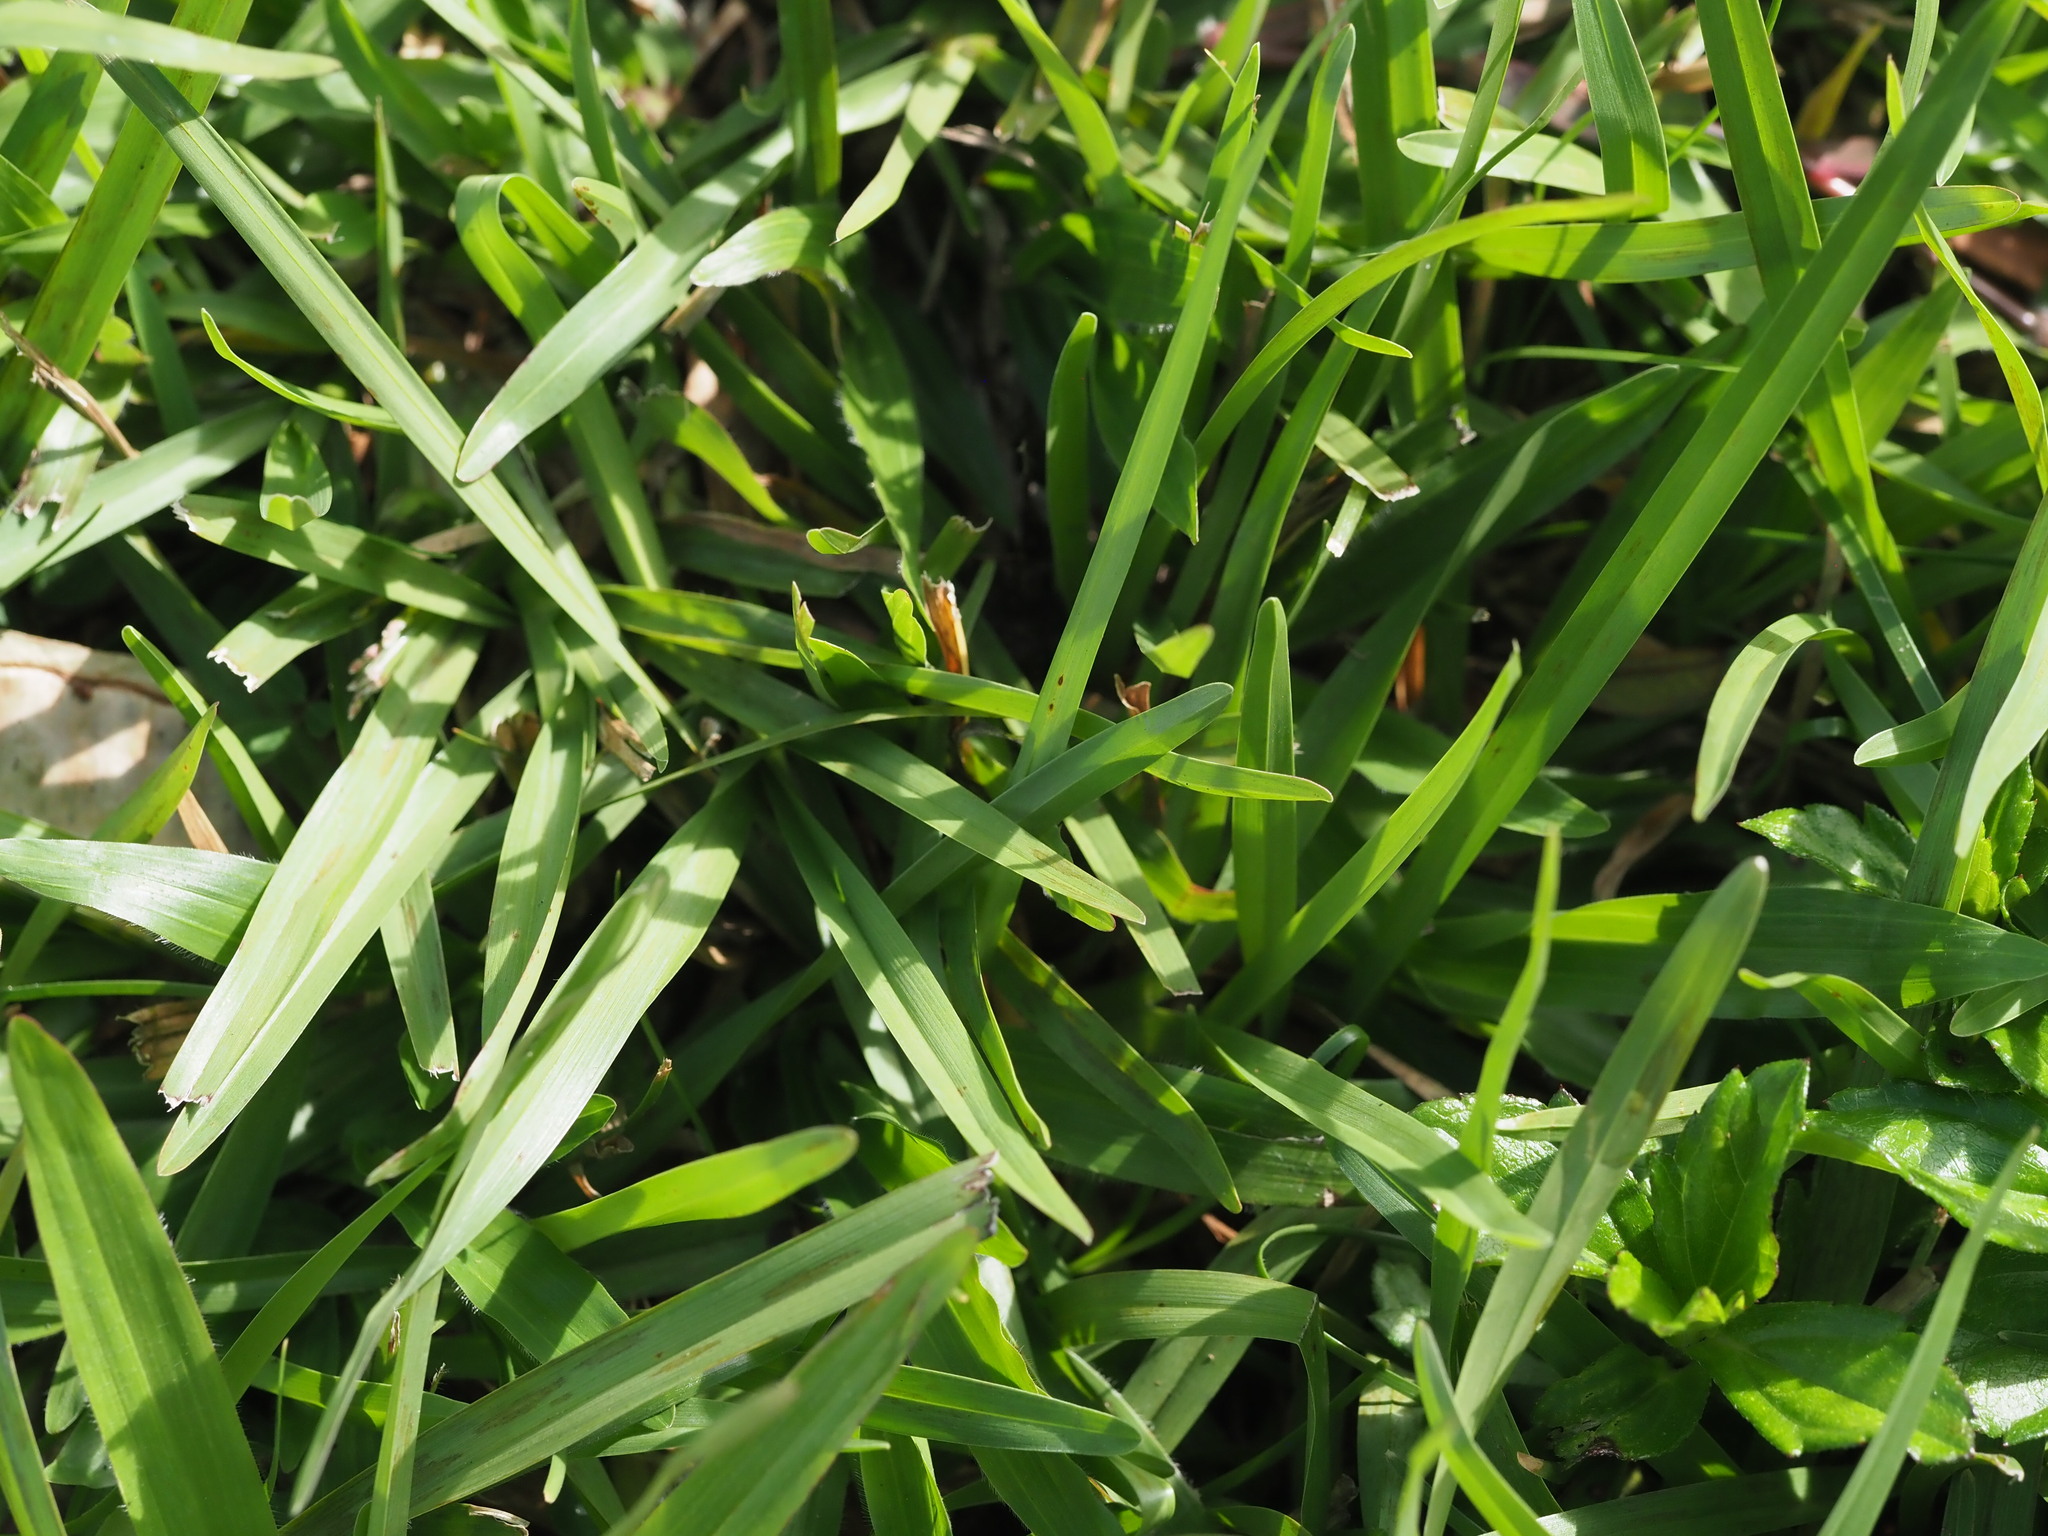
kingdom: Plantae
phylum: Tracheophyta
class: Liliopsida
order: Poales
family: Poaceae
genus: Axonopus
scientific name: Axonopus fissifolius
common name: Common carpetgrass
